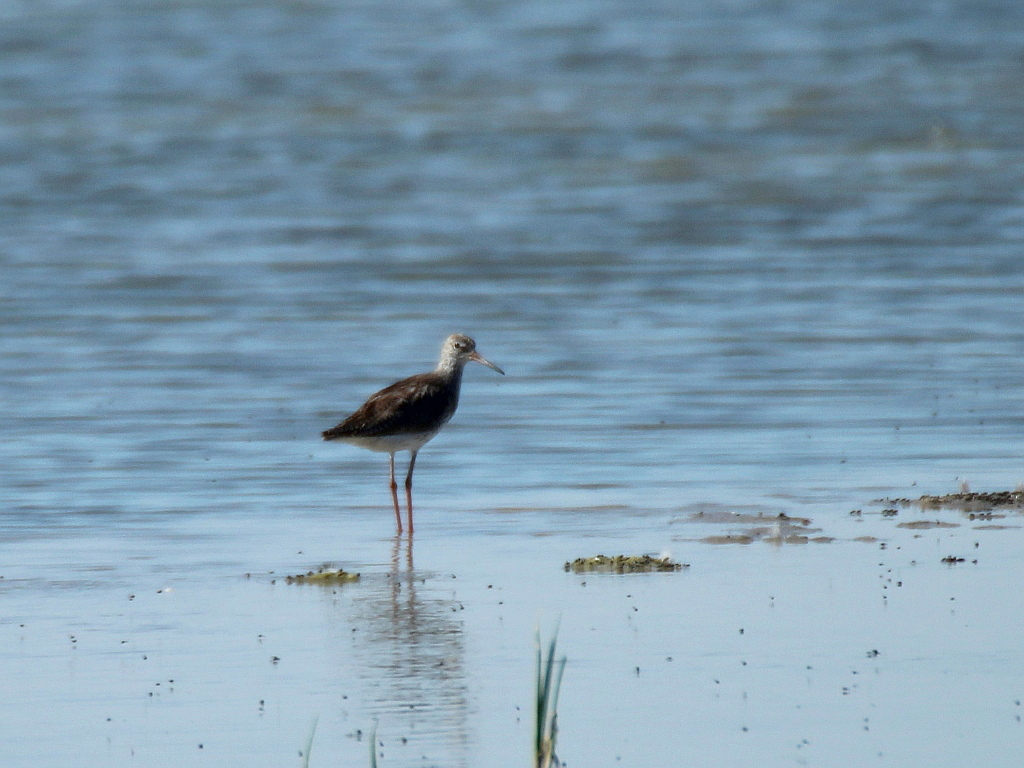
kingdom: Animalia
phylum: Chordata
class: Aves
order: Charadriiformes
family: Scolopacidae
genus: Tringa
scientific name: Tringa totanus
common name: Common redshank
